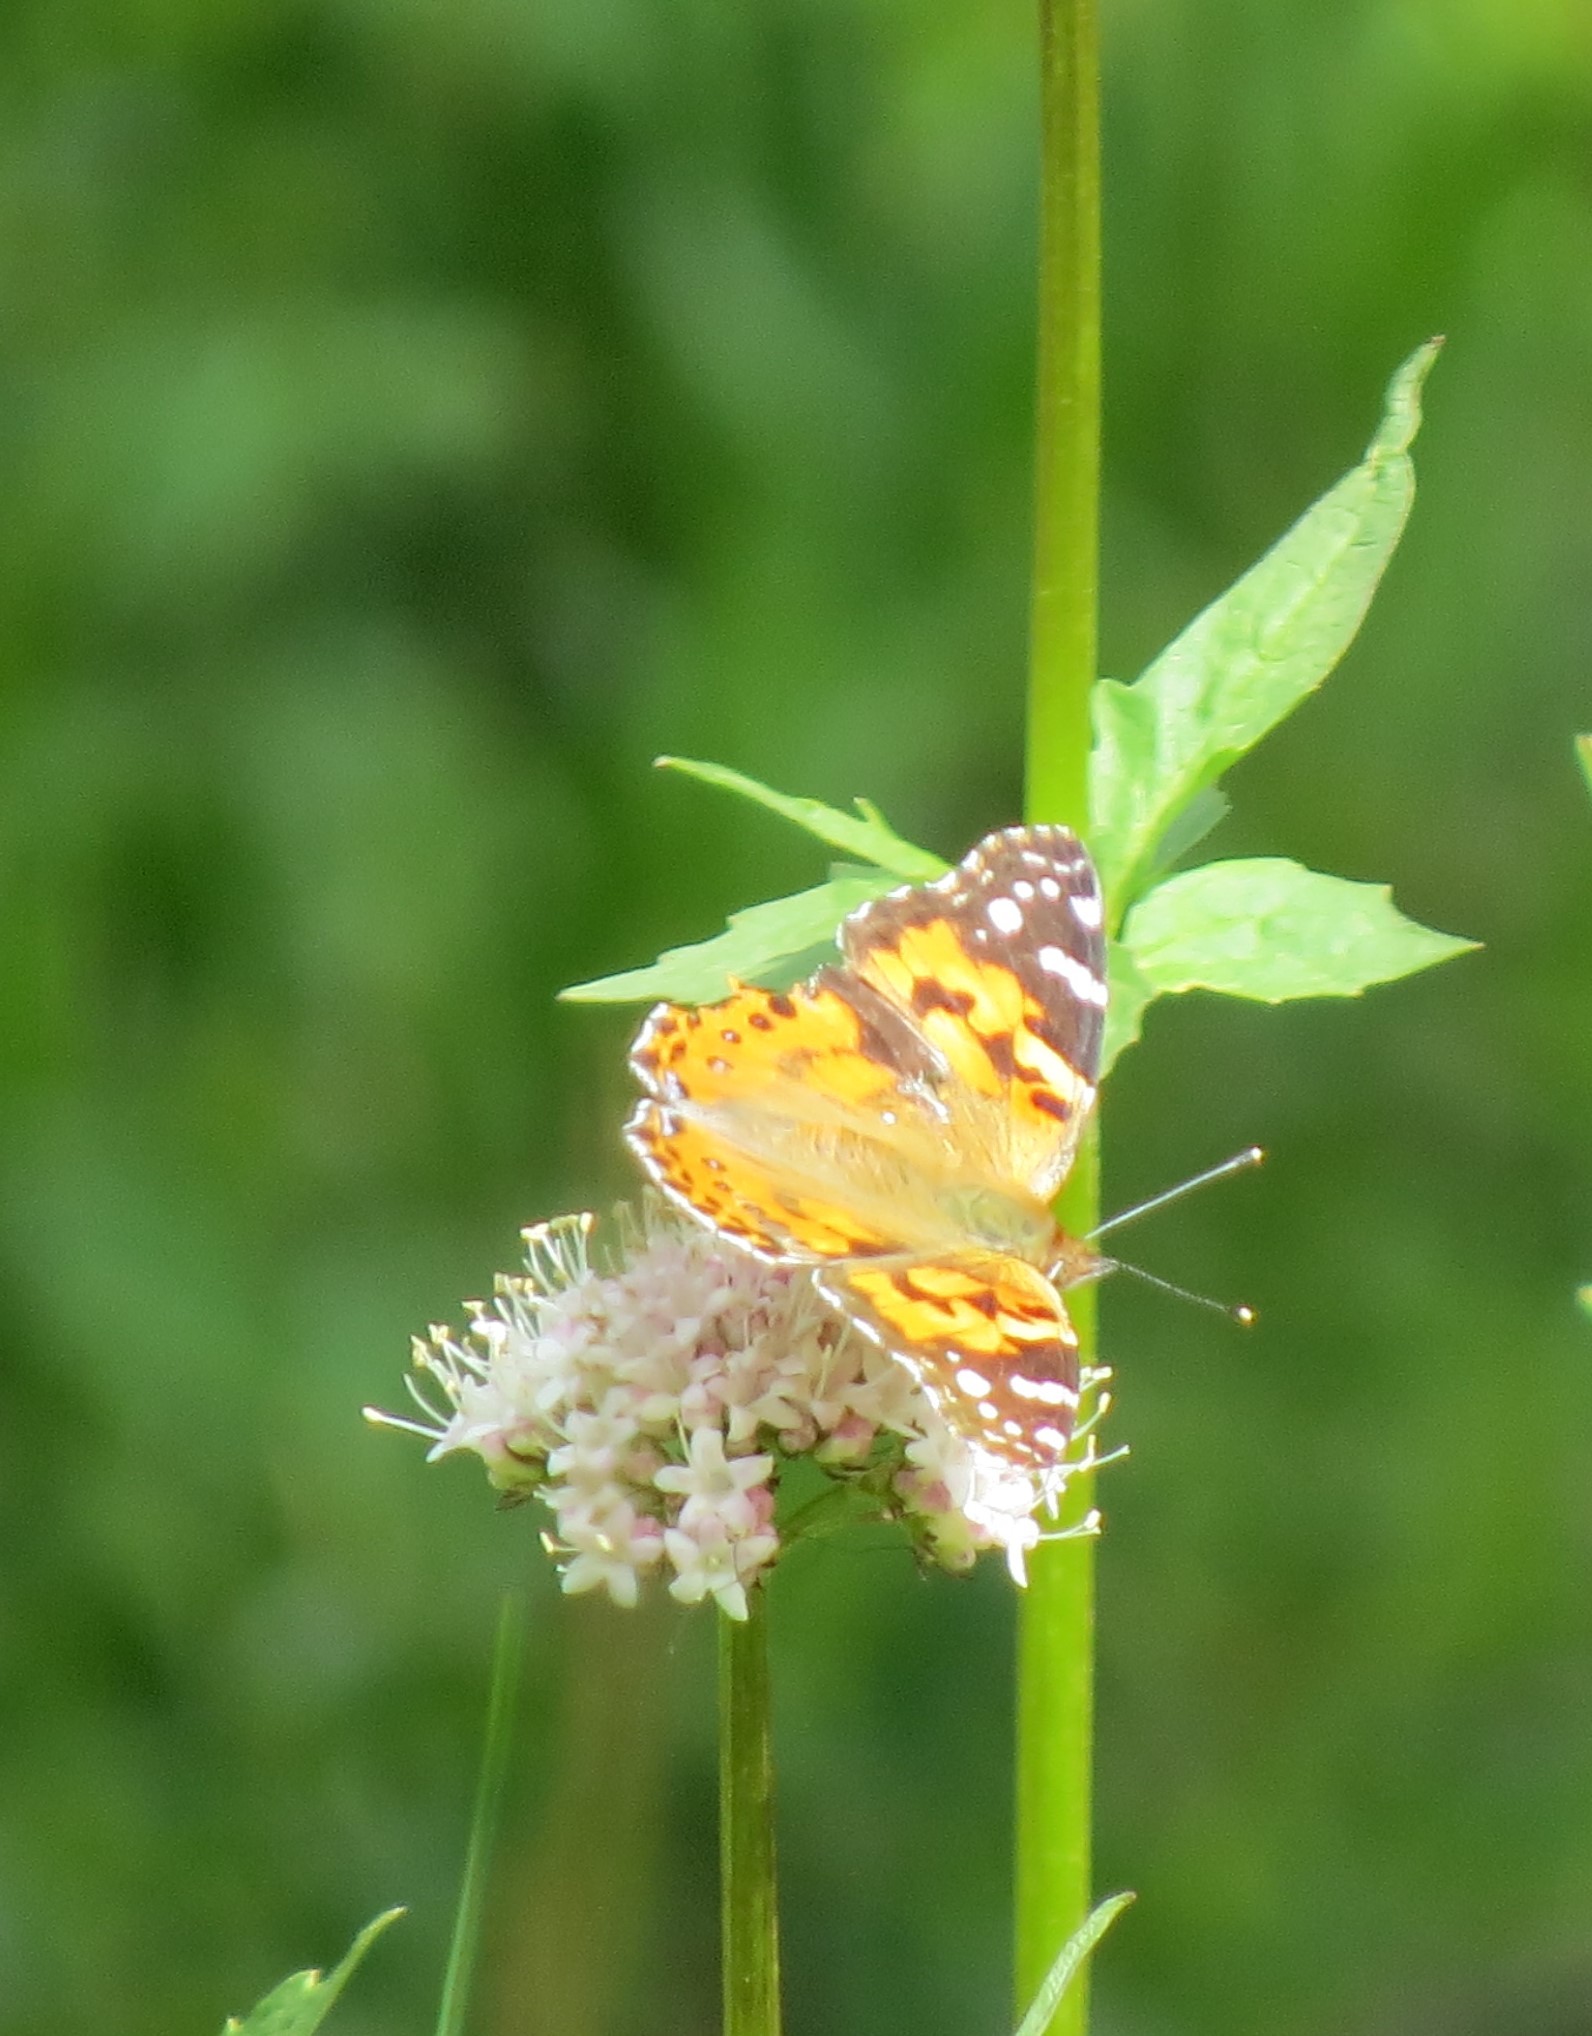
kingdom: Animalia
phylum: Arthropoda
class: Insecta
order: Lepidoptera
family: Nymphalidae
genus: Vanessa
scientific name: Vanessa cardui
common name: Painted lady
